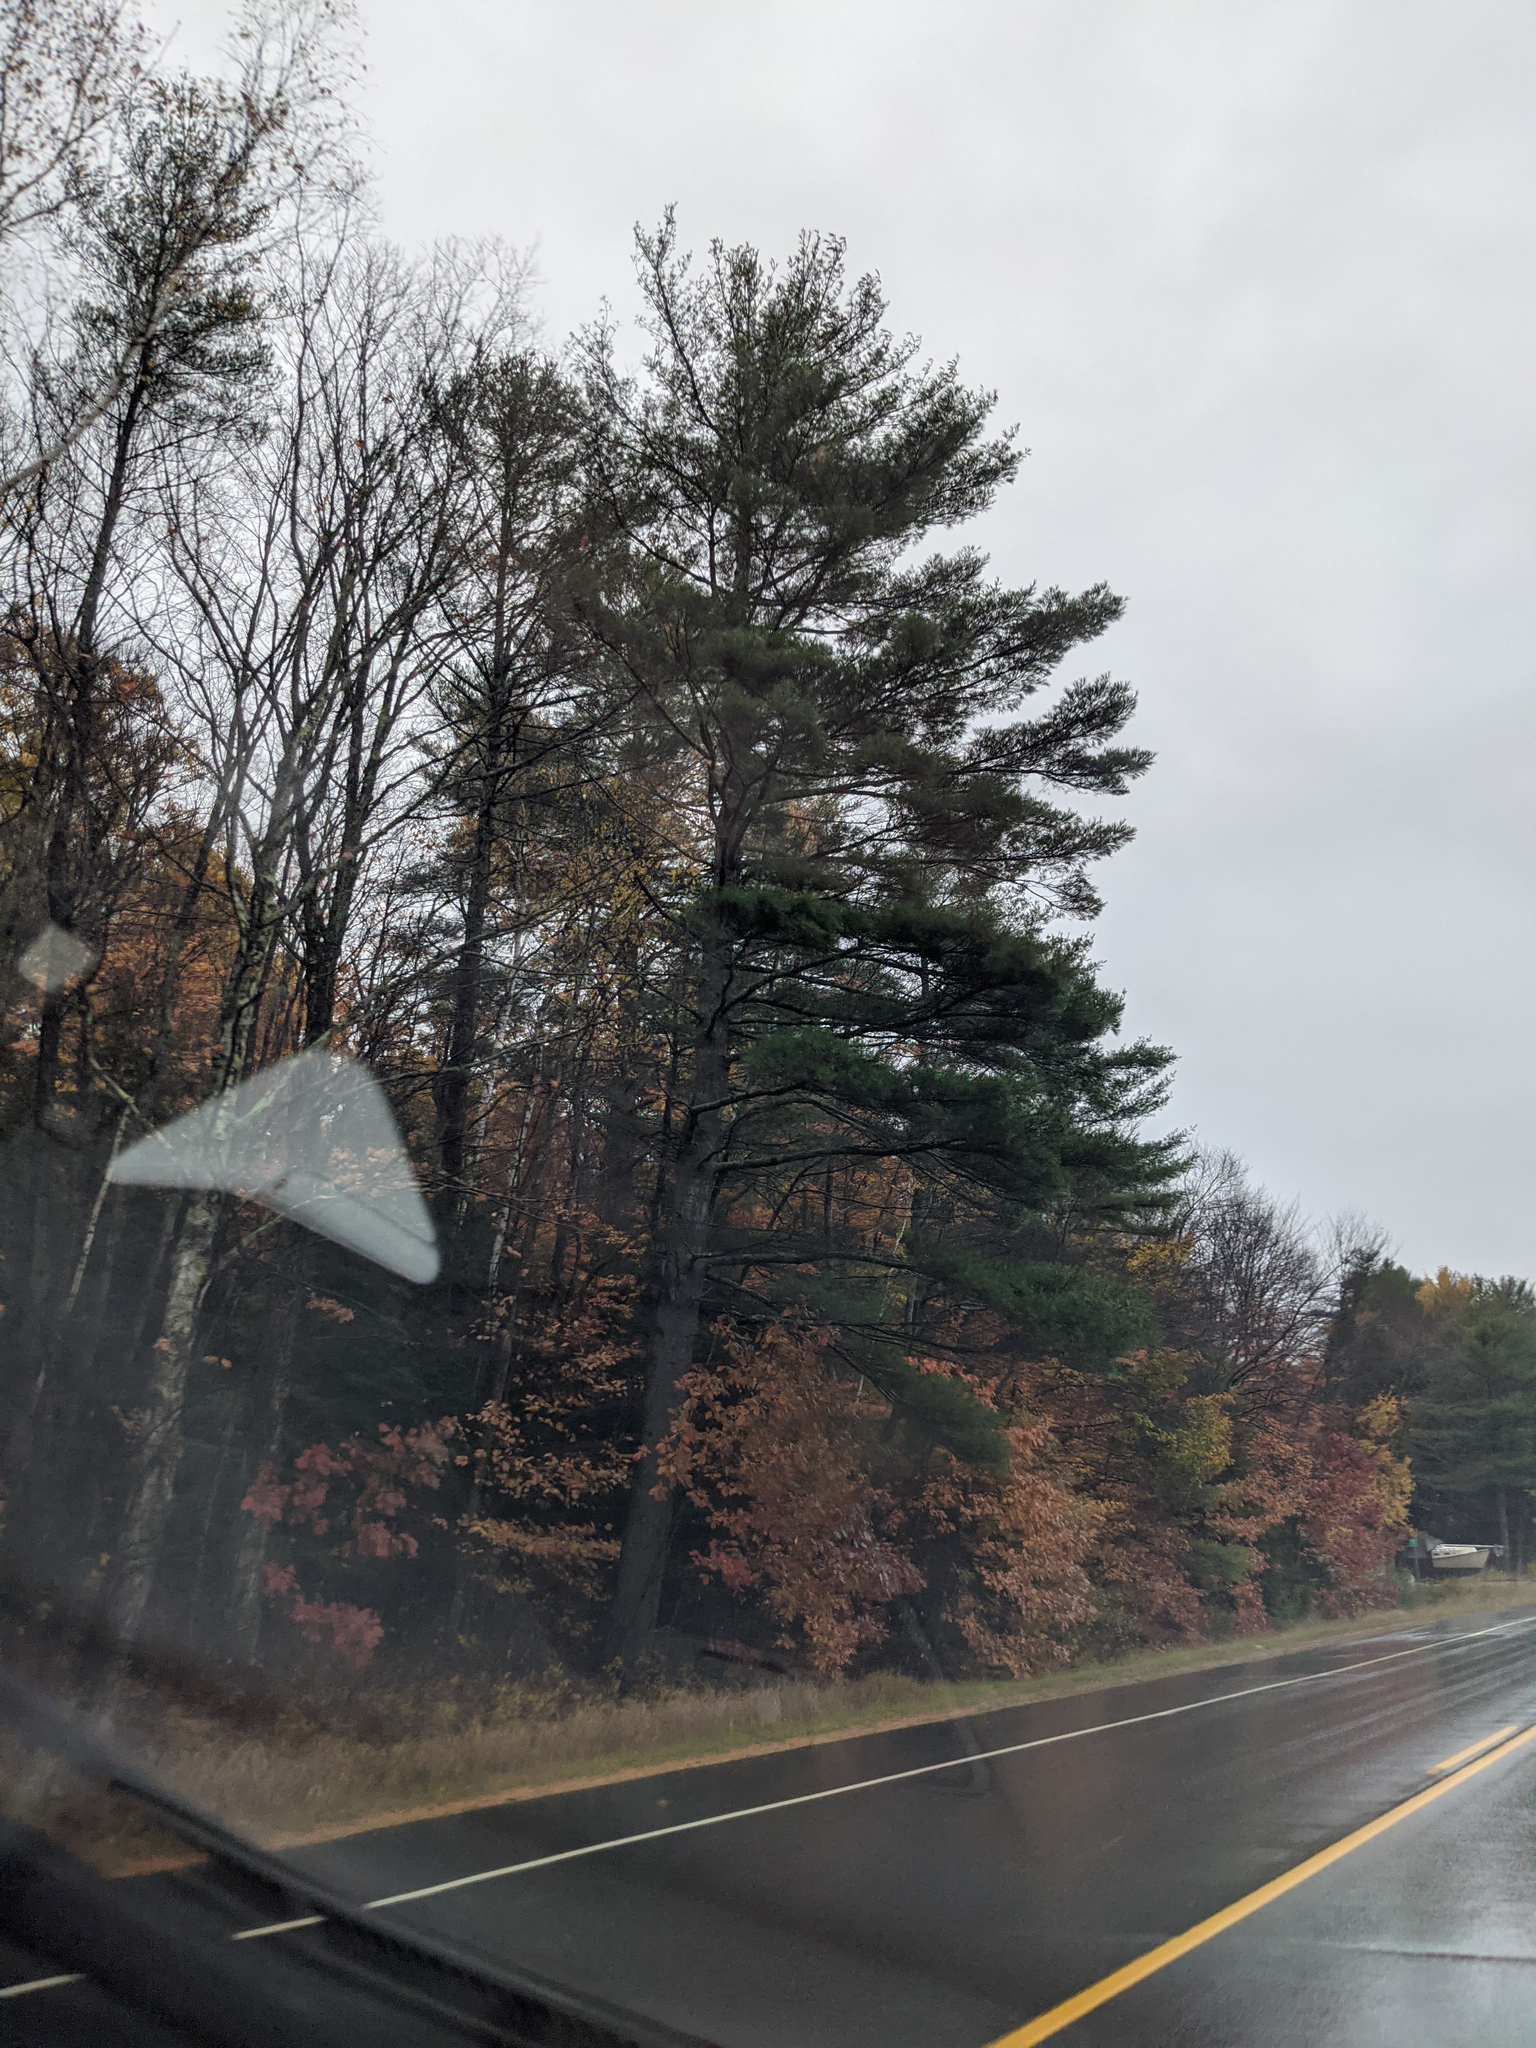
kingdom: Plantae
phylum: Tracheophyta
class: Pinopsida
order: Pinales
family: Pinaceae
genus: Pinus
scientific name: Pinus strobus
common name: Weymouth pine
